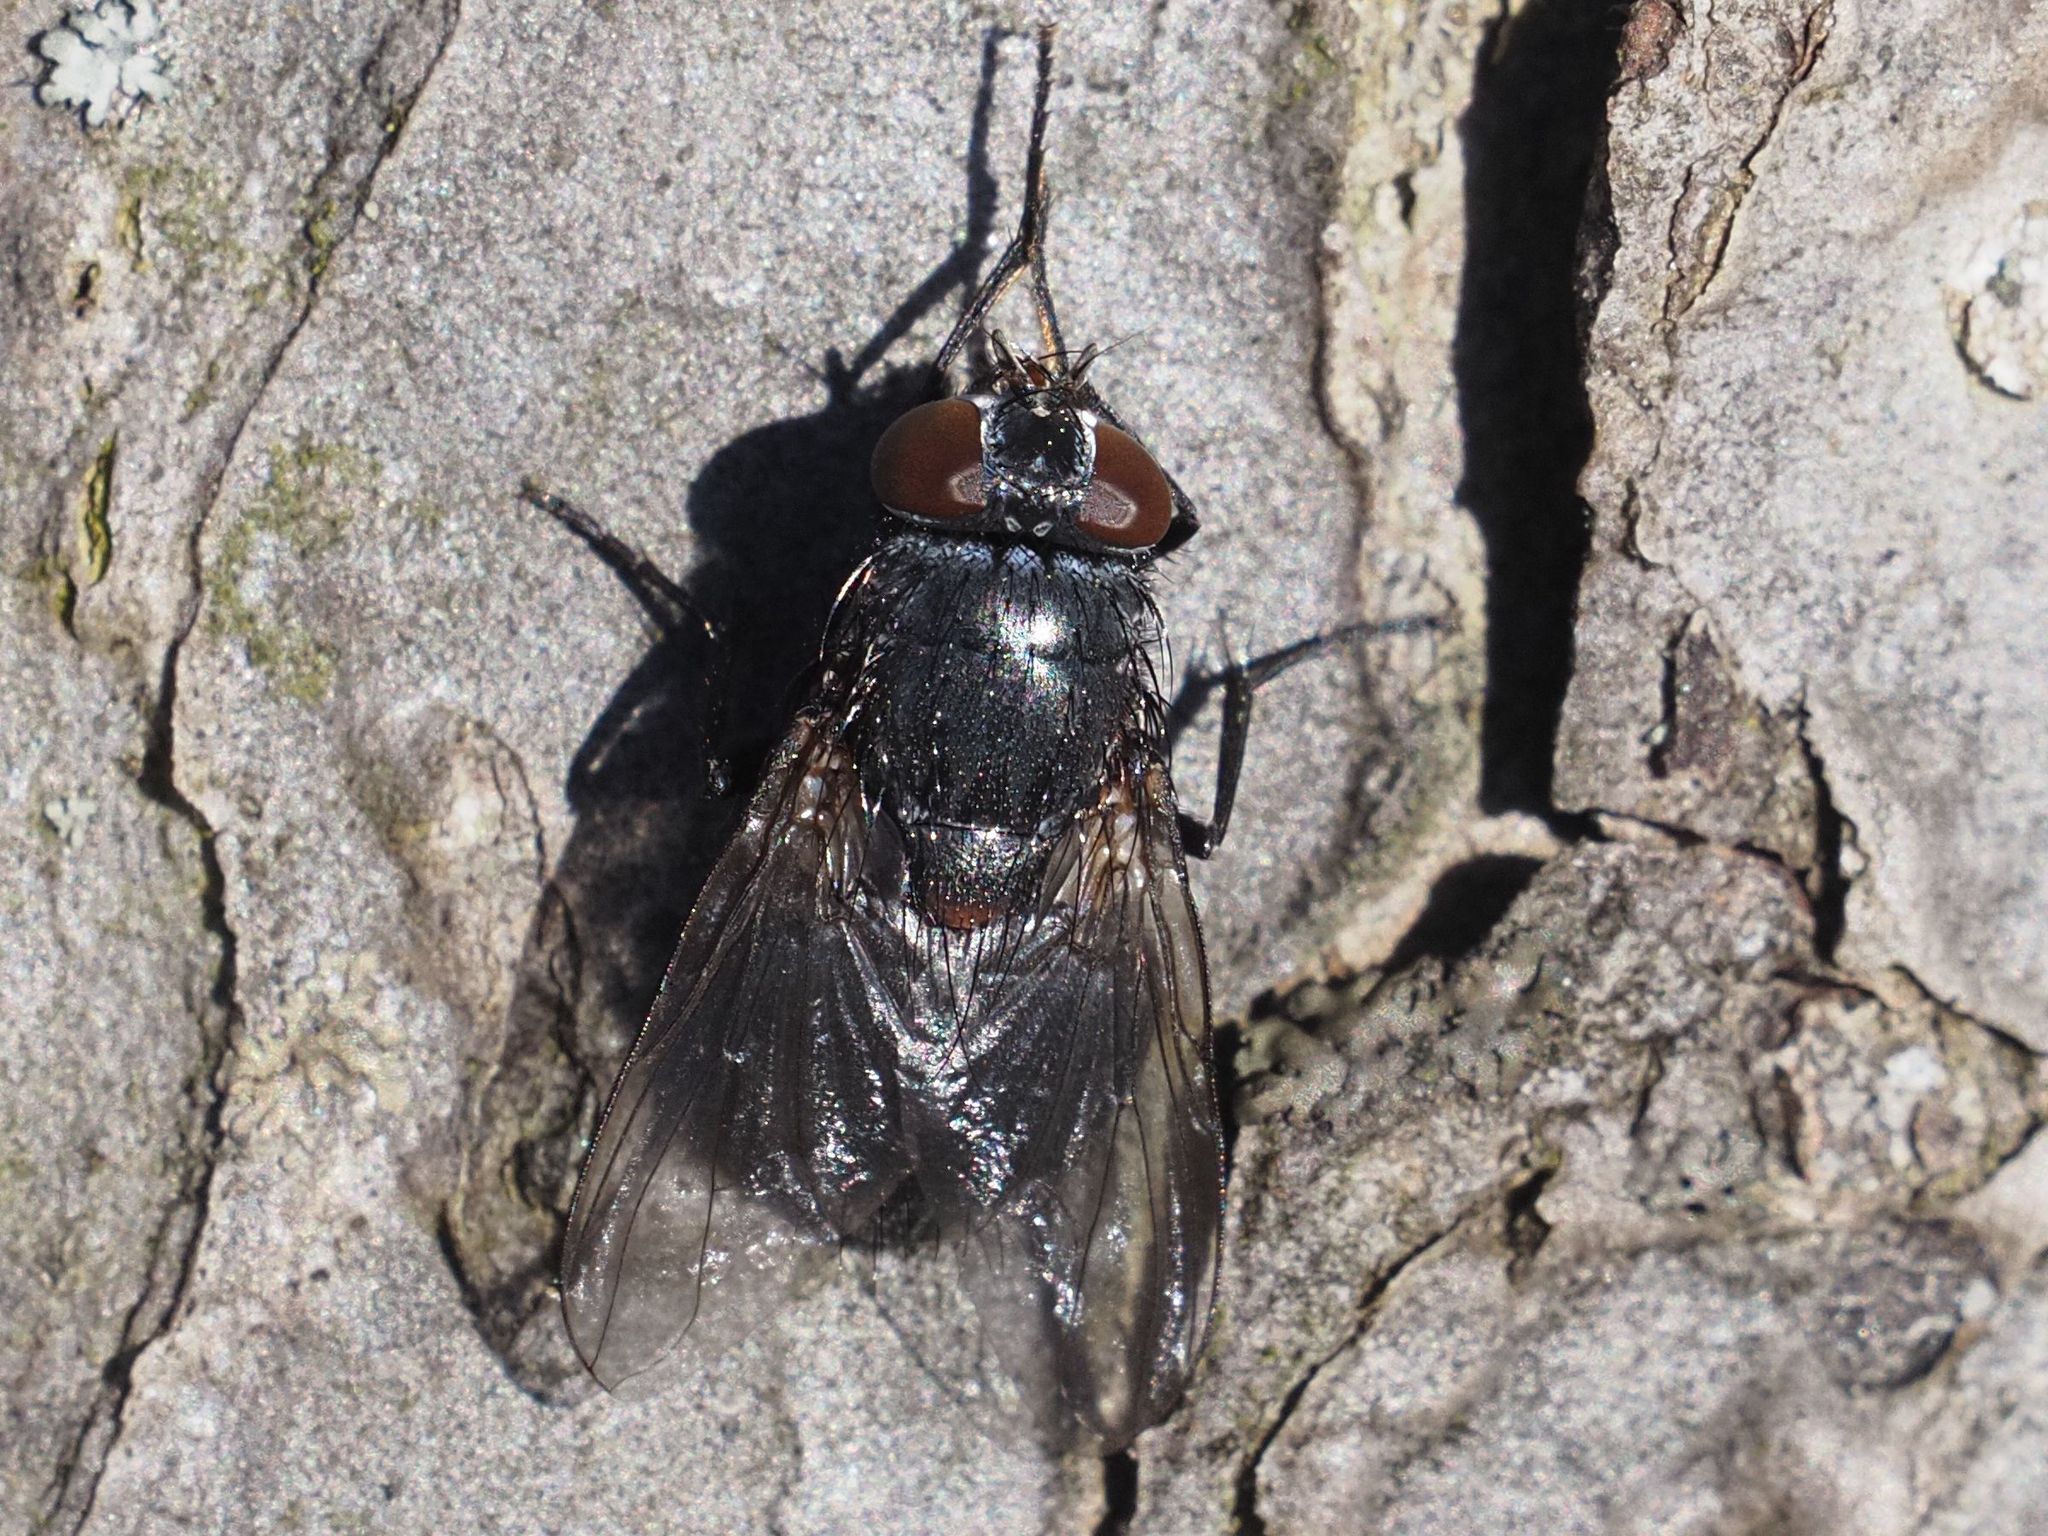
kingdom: Animalia
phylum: Arthropoda
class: Insecta
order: Diptera
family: Muscidae
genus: Muscina
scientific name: Muscina pascuorum
